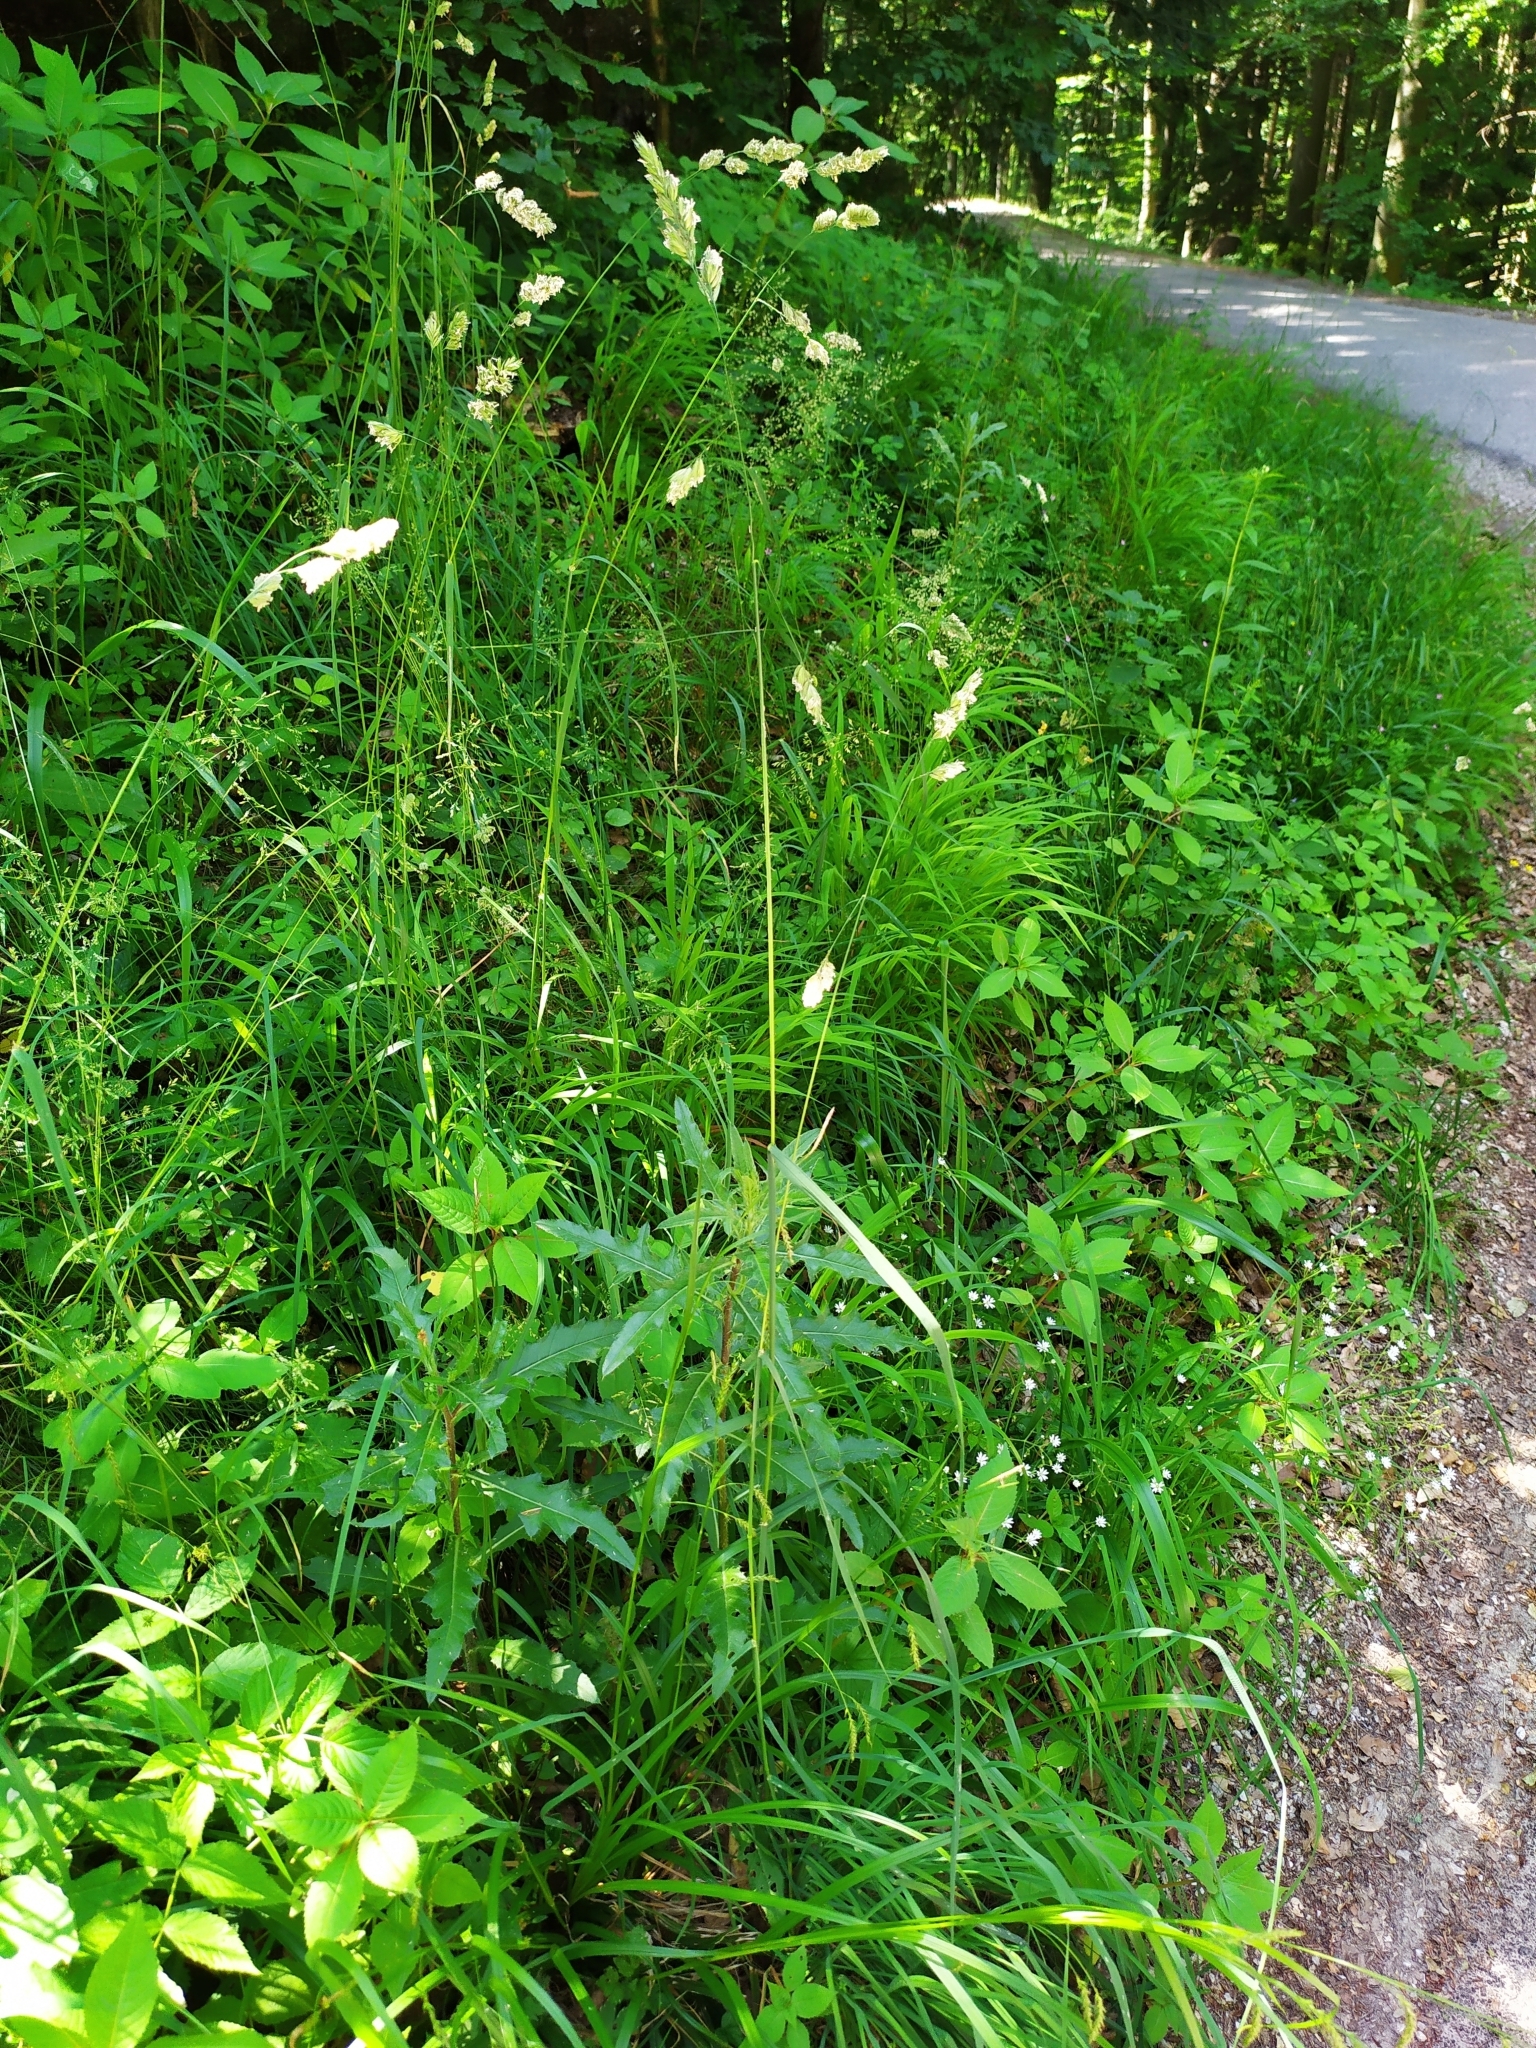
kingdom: Plantae
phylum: Tracheophyta
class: Liliopsida
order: Poales
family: Poaceae
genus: Dactylis
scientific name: Dactylis glomerata
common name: Orchardgrass
